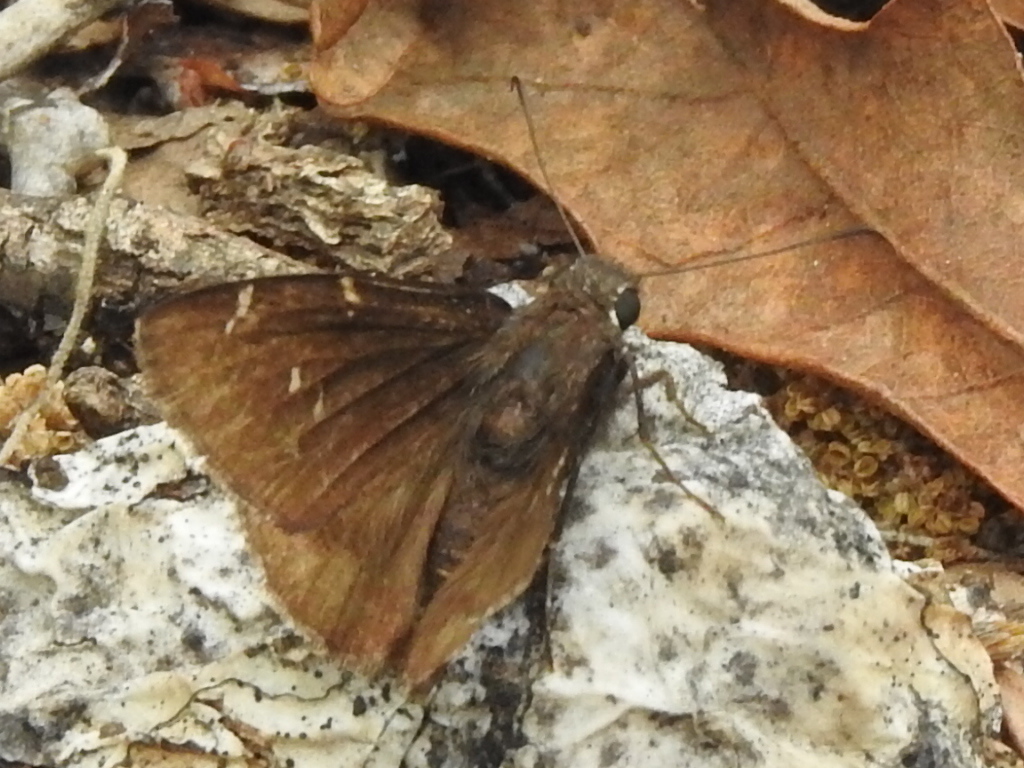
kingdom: Animalia
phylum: Arthropoda
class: Insecta
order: Lepidoptera
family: Hesperiidae
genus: Thorybes
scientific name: Thorybes pylades
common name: Northern cloudywing
